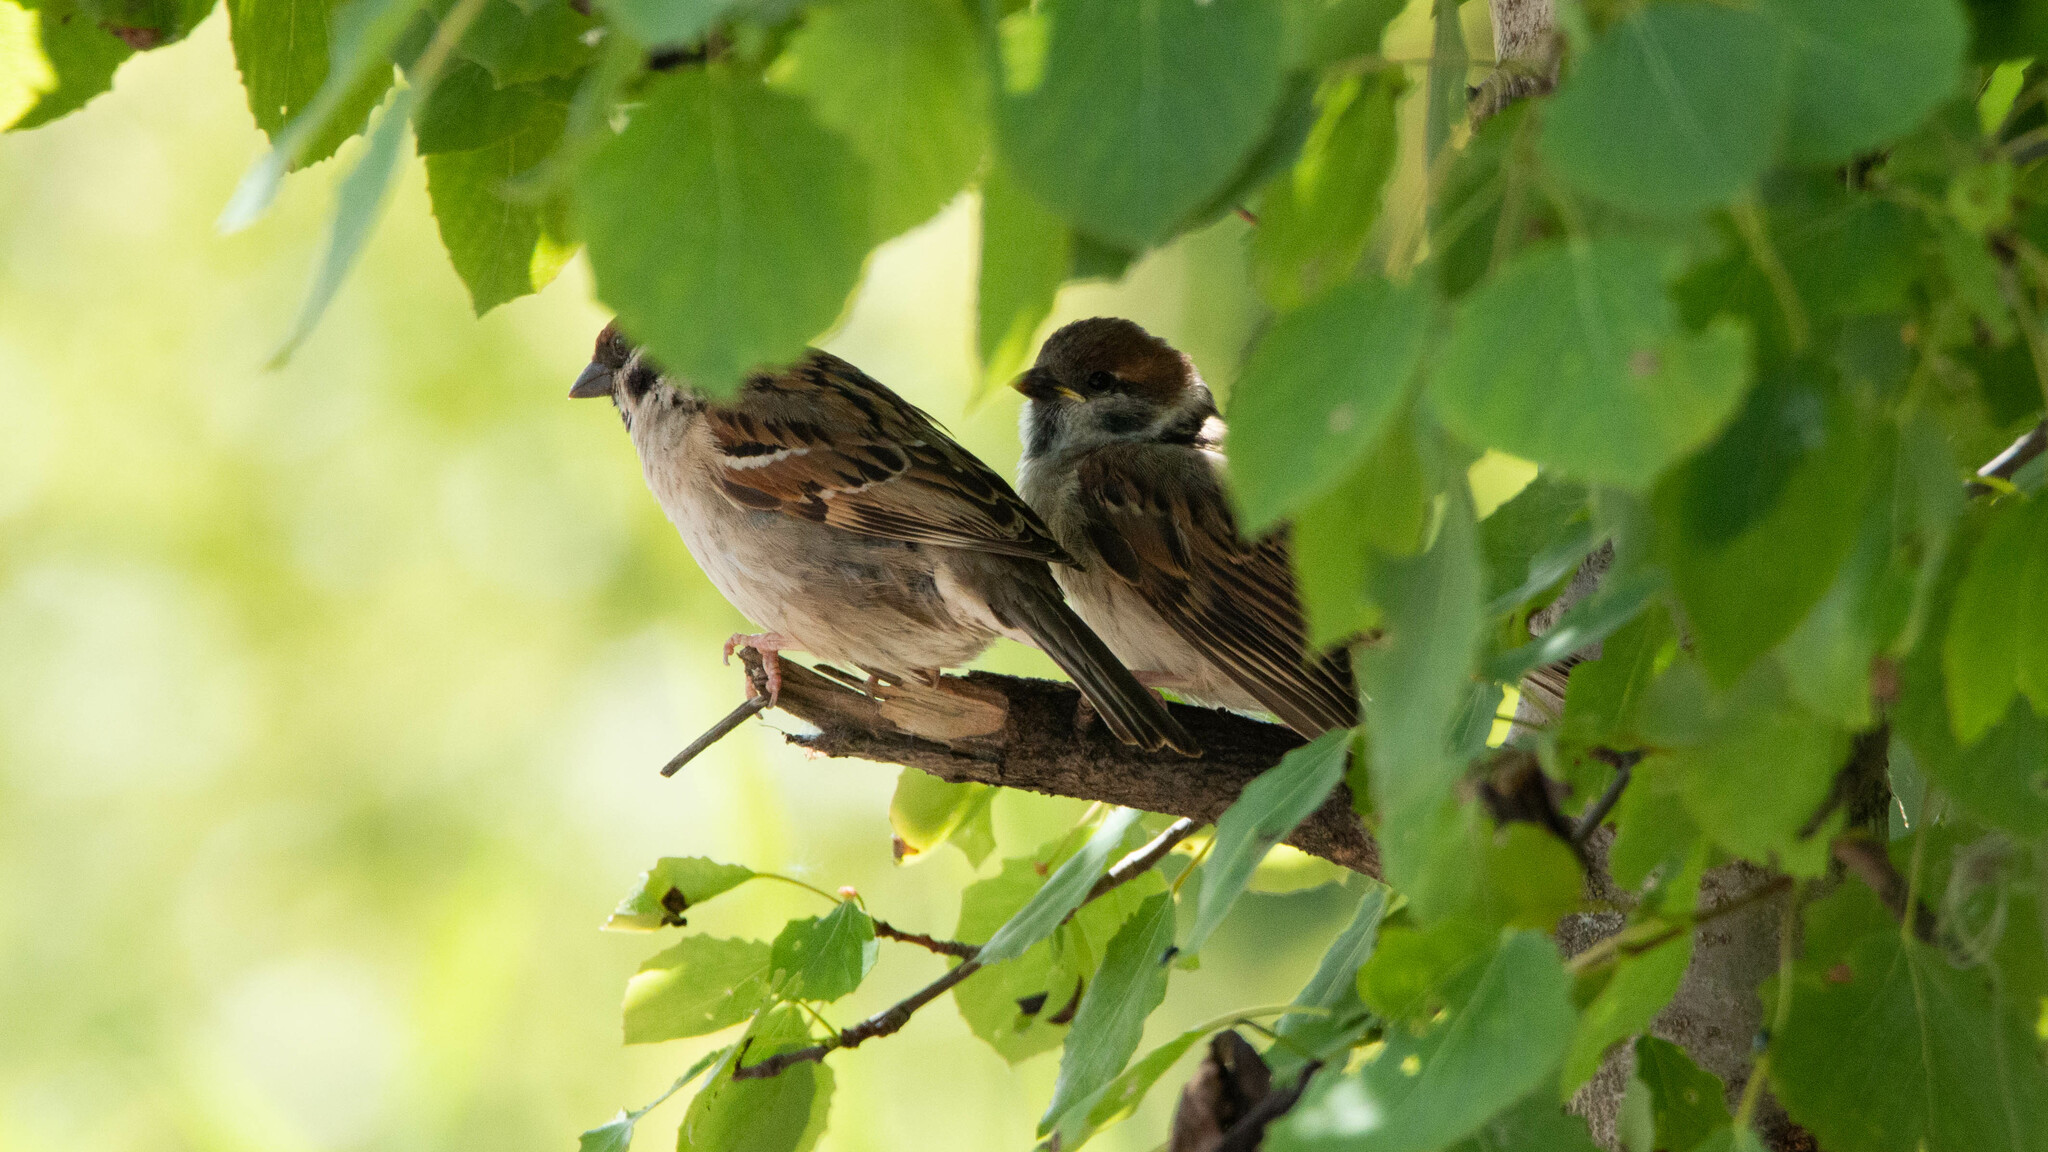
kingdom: Animalia
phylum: Chordata
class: Aves
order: Passeriformes
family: Passeridae
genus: Passer
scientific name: Passer montanus
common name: Eurasian tree sparrow
